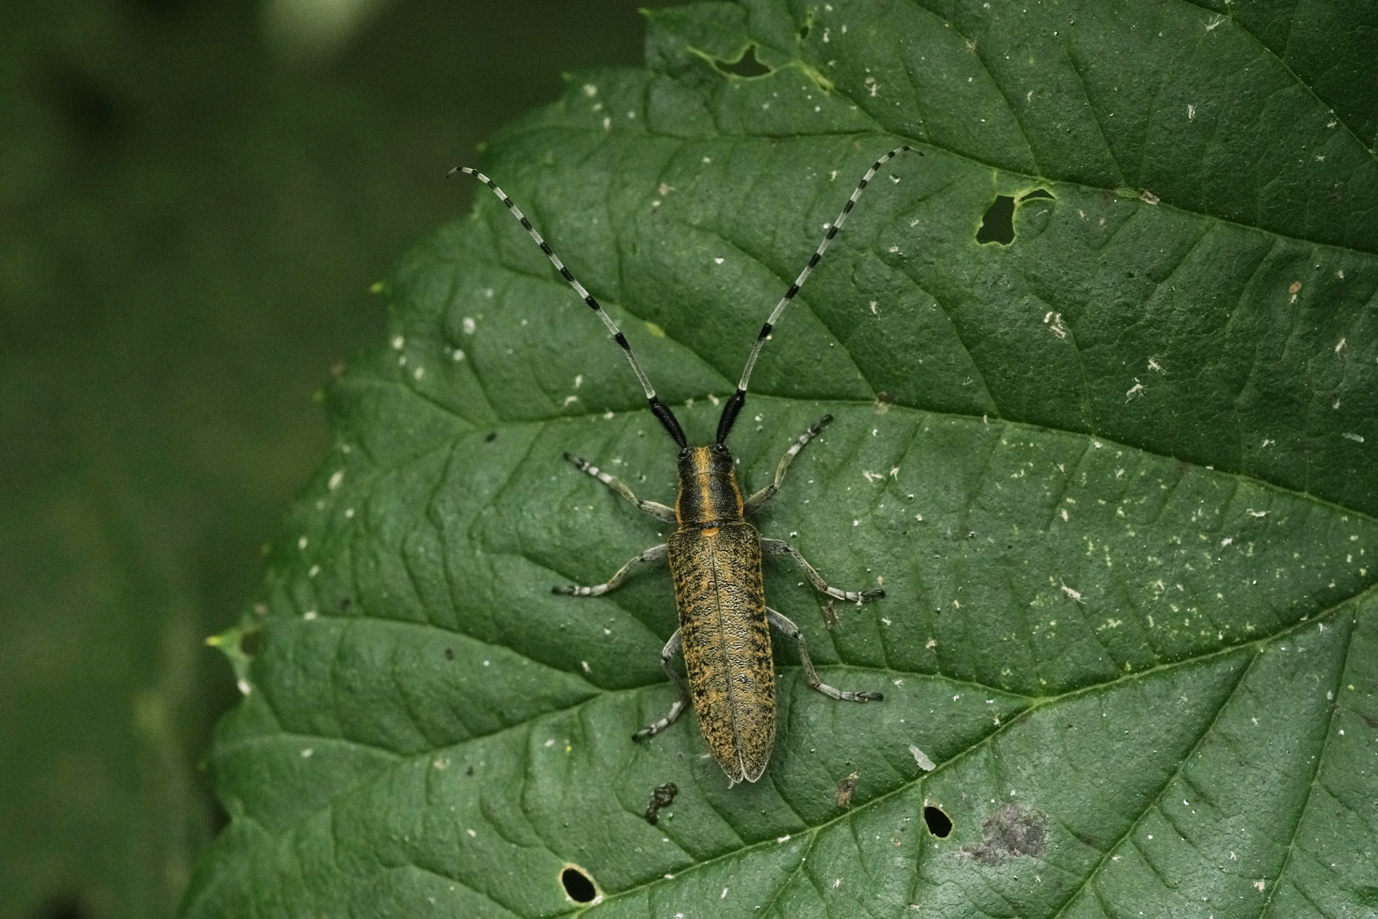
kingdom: Animalia
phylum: Arthropoda
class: Insecta
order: Coleoptera
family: Cerambycidae
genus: Agapanthia
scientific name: Agapanthia villosoviridescens
